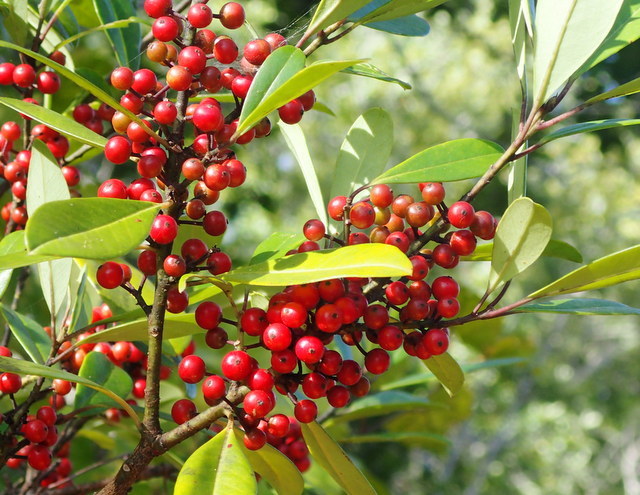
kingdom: Plantae
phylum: Tracheophyta
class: Magnoliopsida
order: Aquifoliales
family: Aquifoliaceae
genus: Ilex
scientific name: Ilex cassine
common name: Dahoon
